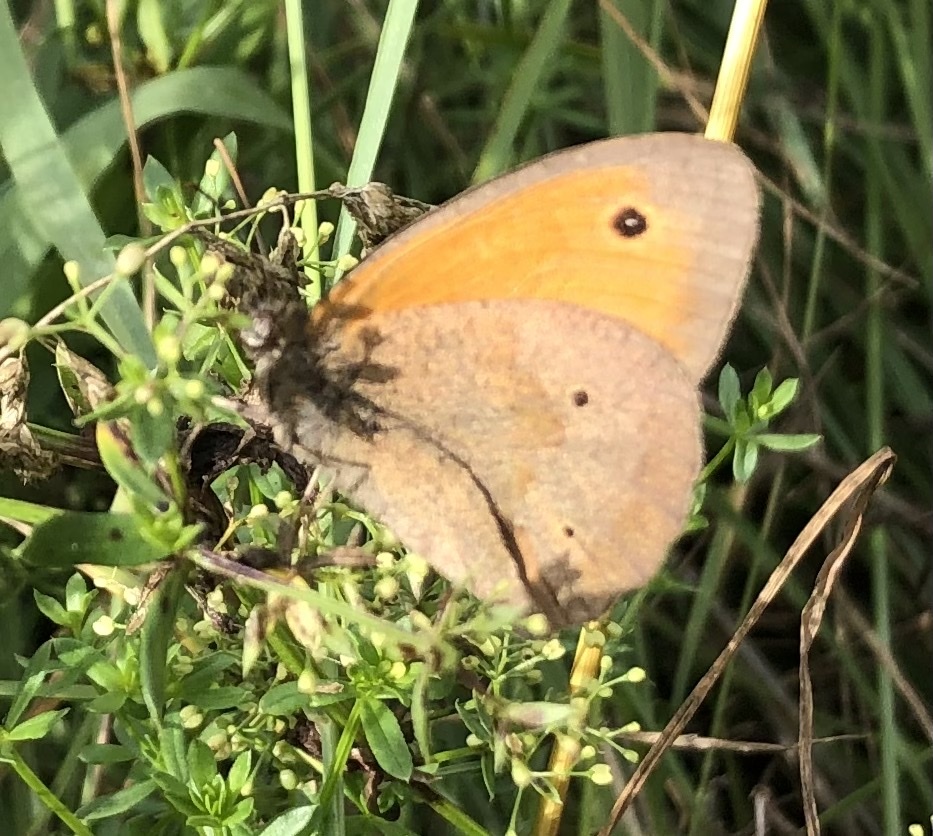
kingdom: Animalia
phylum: Arthropoda
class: Insecta
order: Lepidoptera
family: Nymphalidae
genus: Maniola
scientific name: Maniola jurtina
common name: Meadow brown
